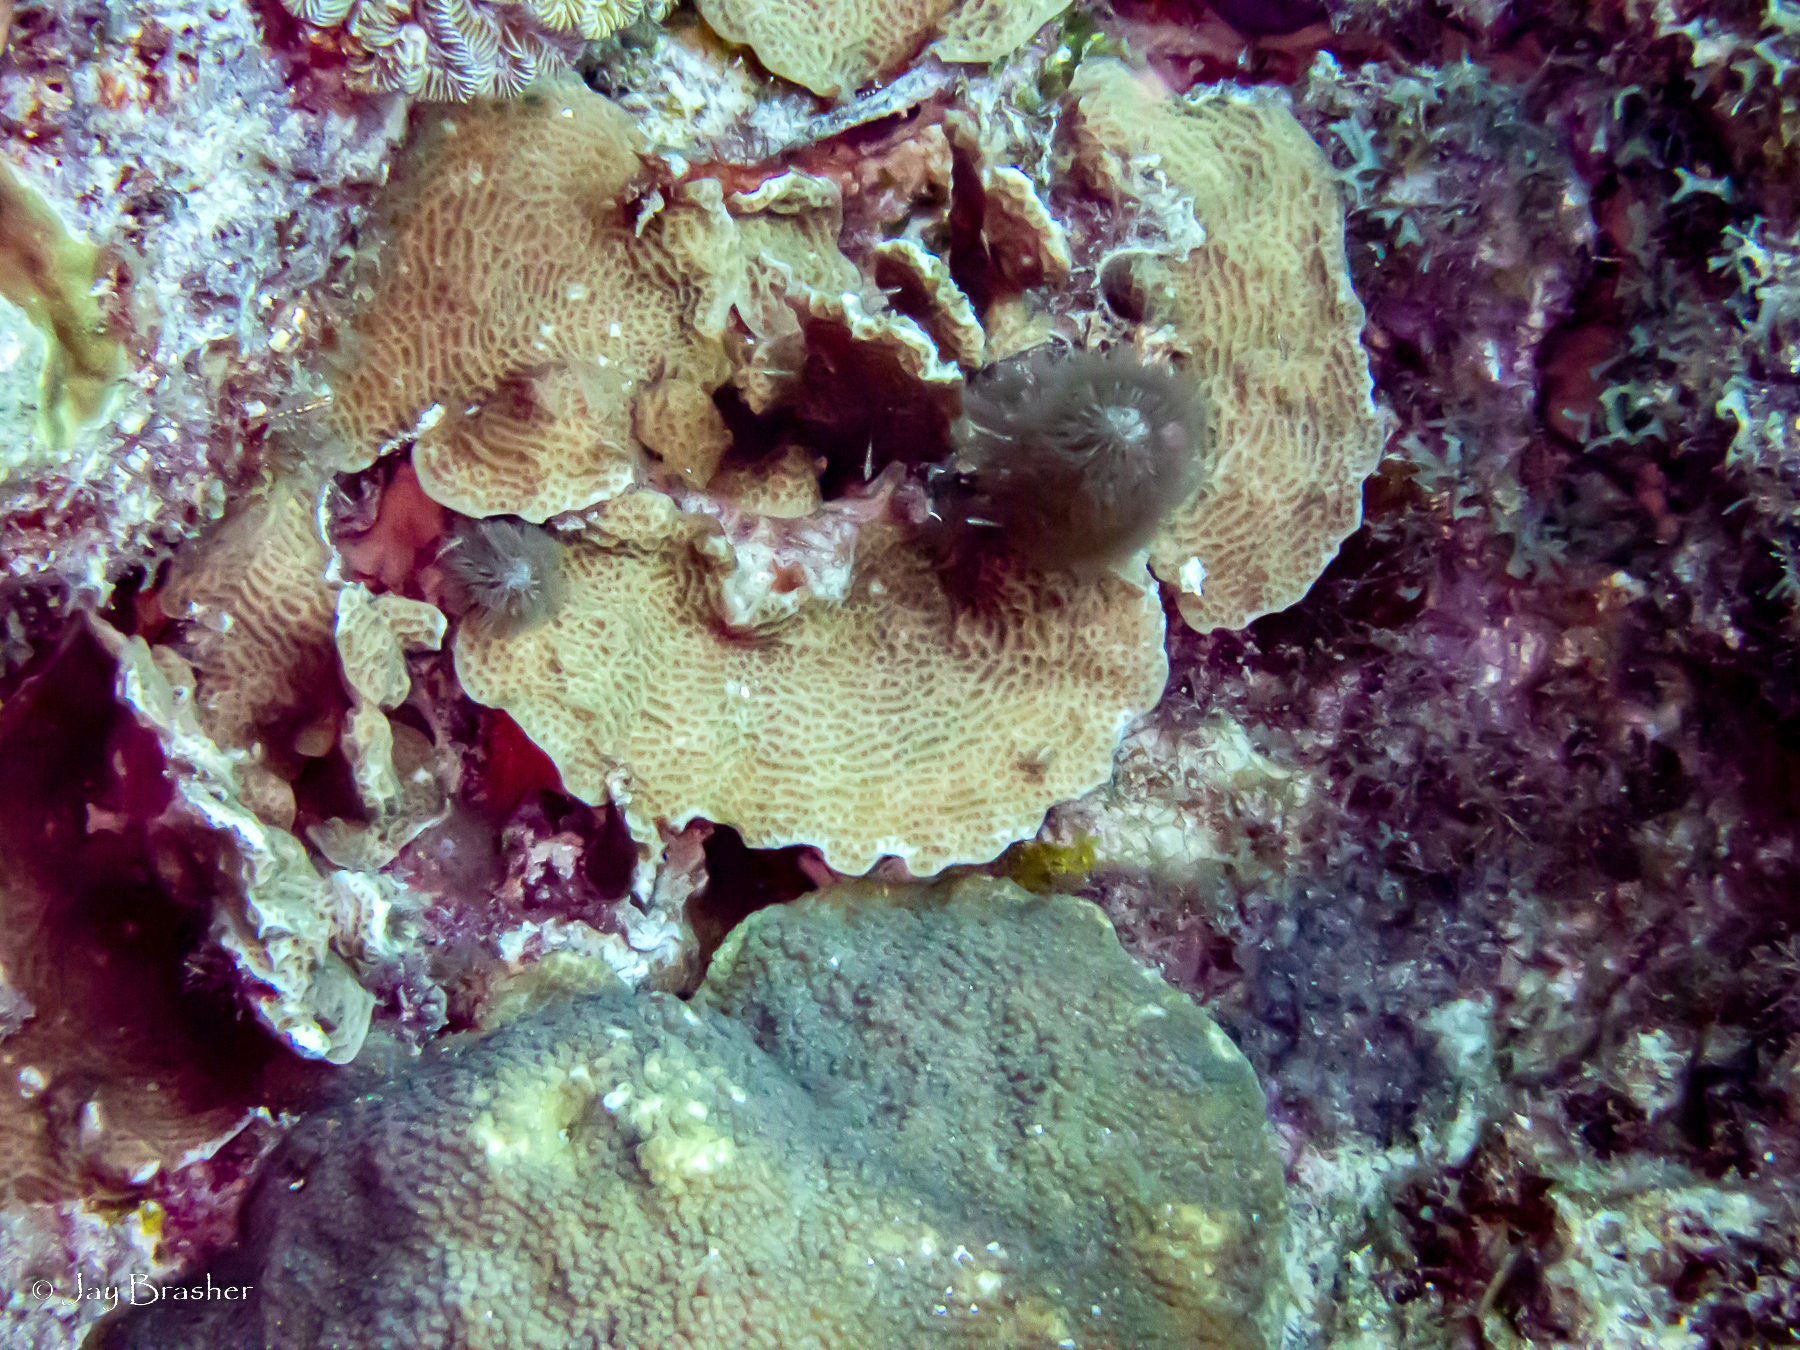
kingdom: Animalia
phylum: Cnidaria
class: Anthozoa
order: Scleralcyonacea
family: Briareidae
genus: Briareum
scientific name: Briareum asbestinum
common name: Corky sea finger
